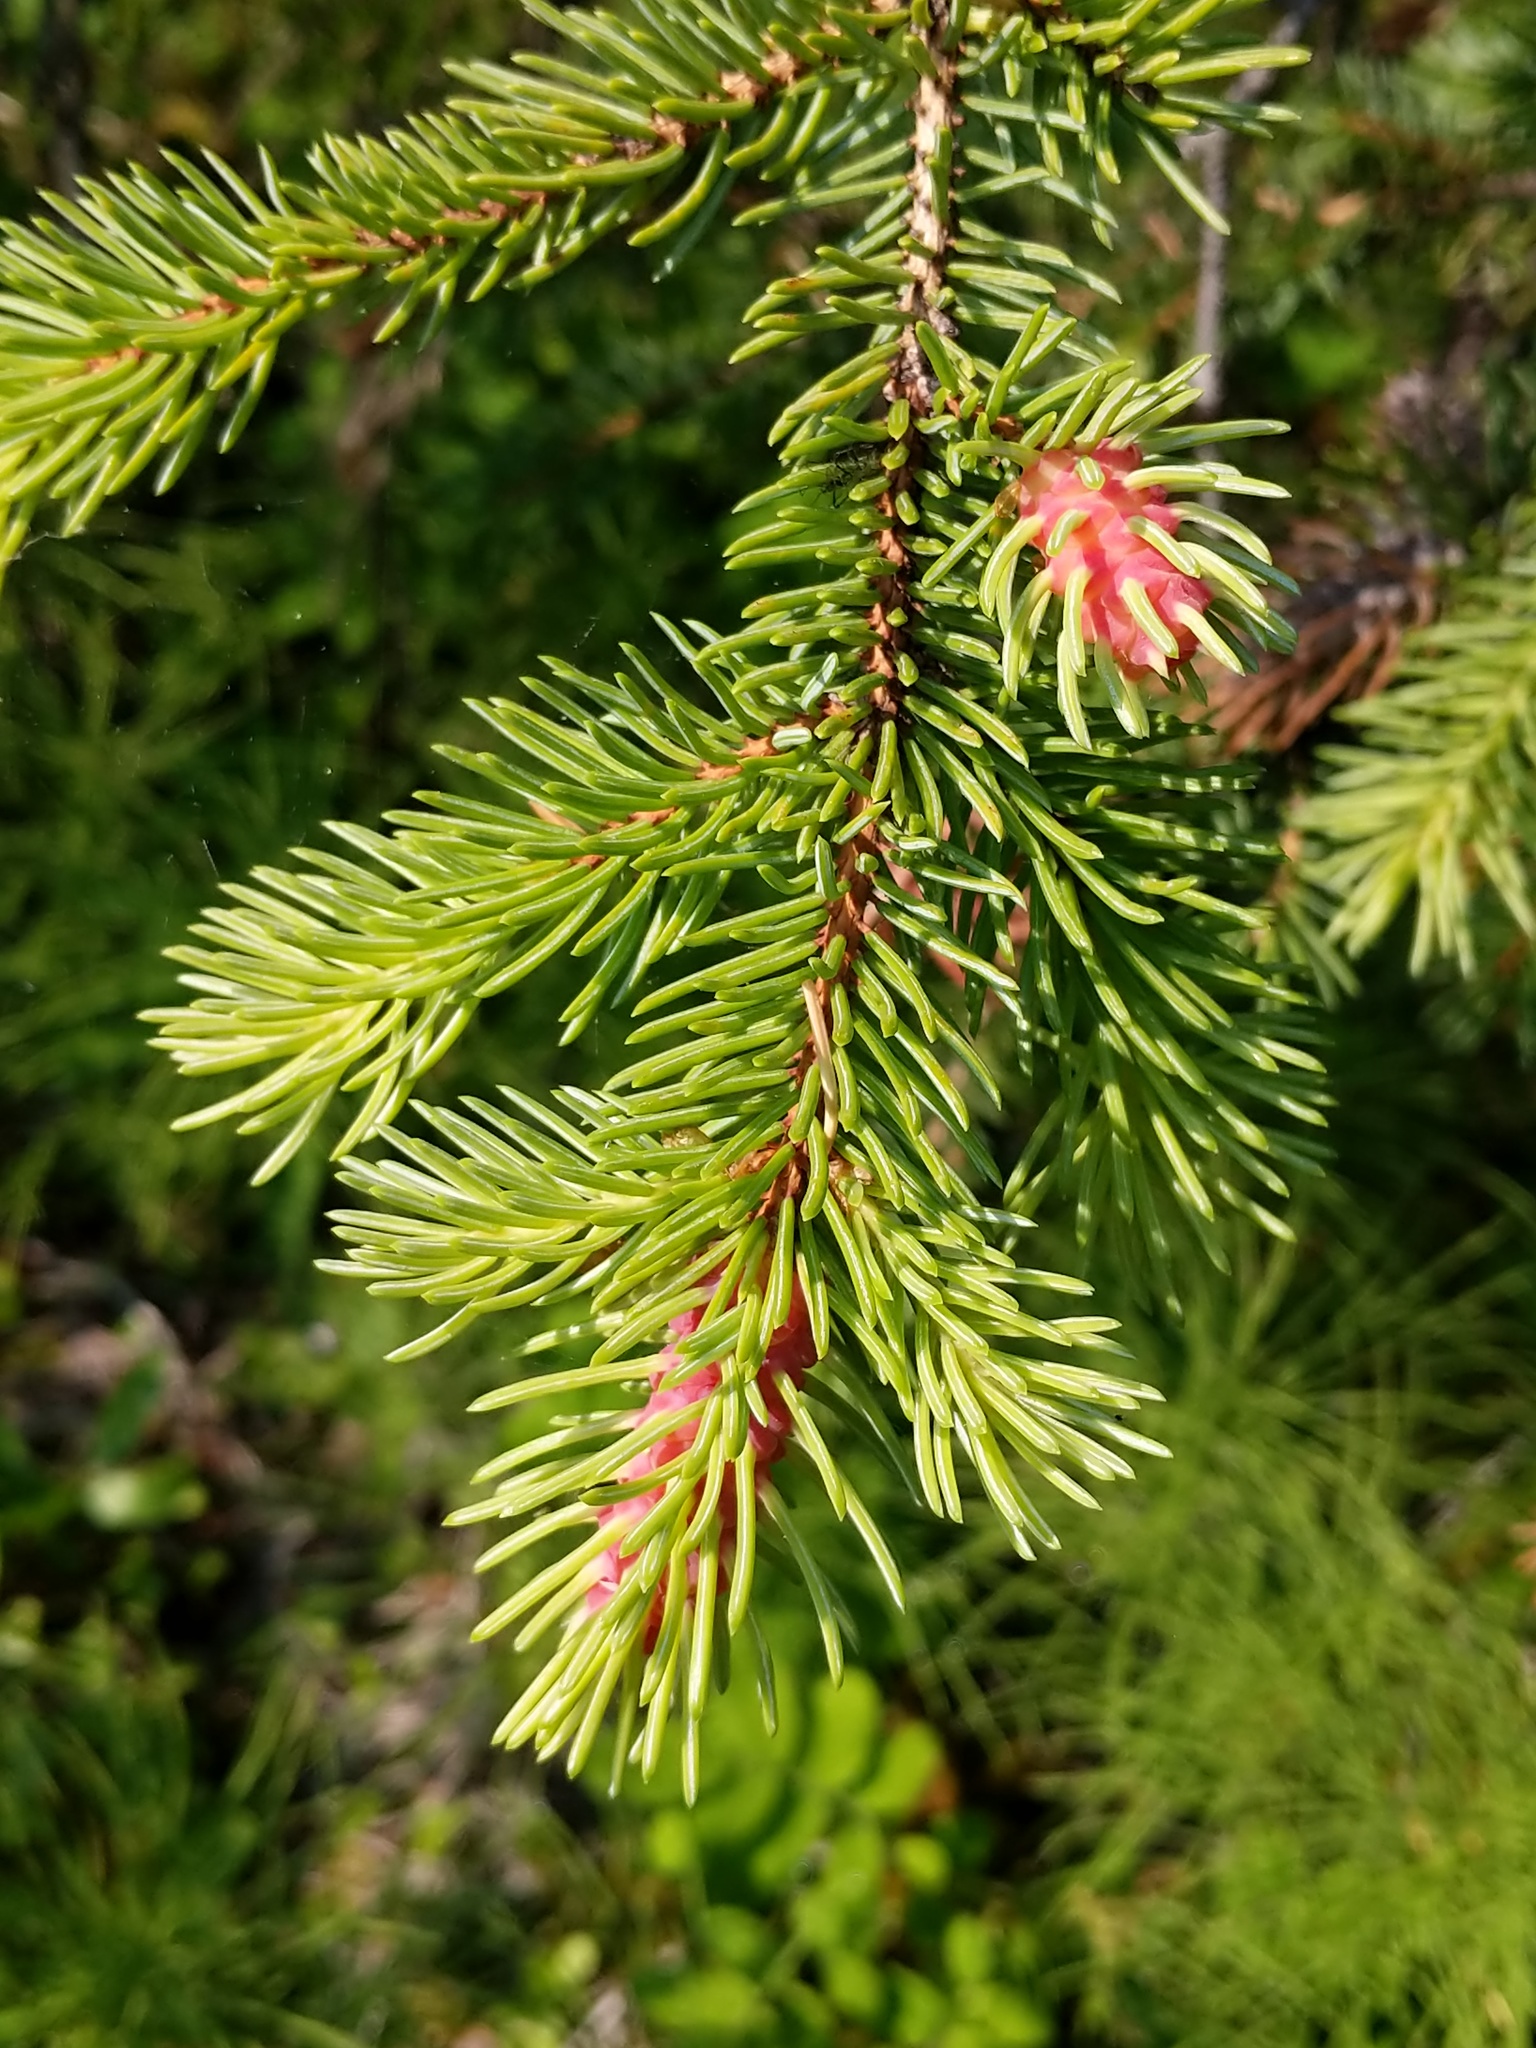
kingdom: Animalia
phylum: Arthropoda
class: Insecta
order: Hemiptera
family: Adelgidae
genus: Adelges
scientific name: Adelges cooleyi
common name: Cooley spruce gall adelgid
